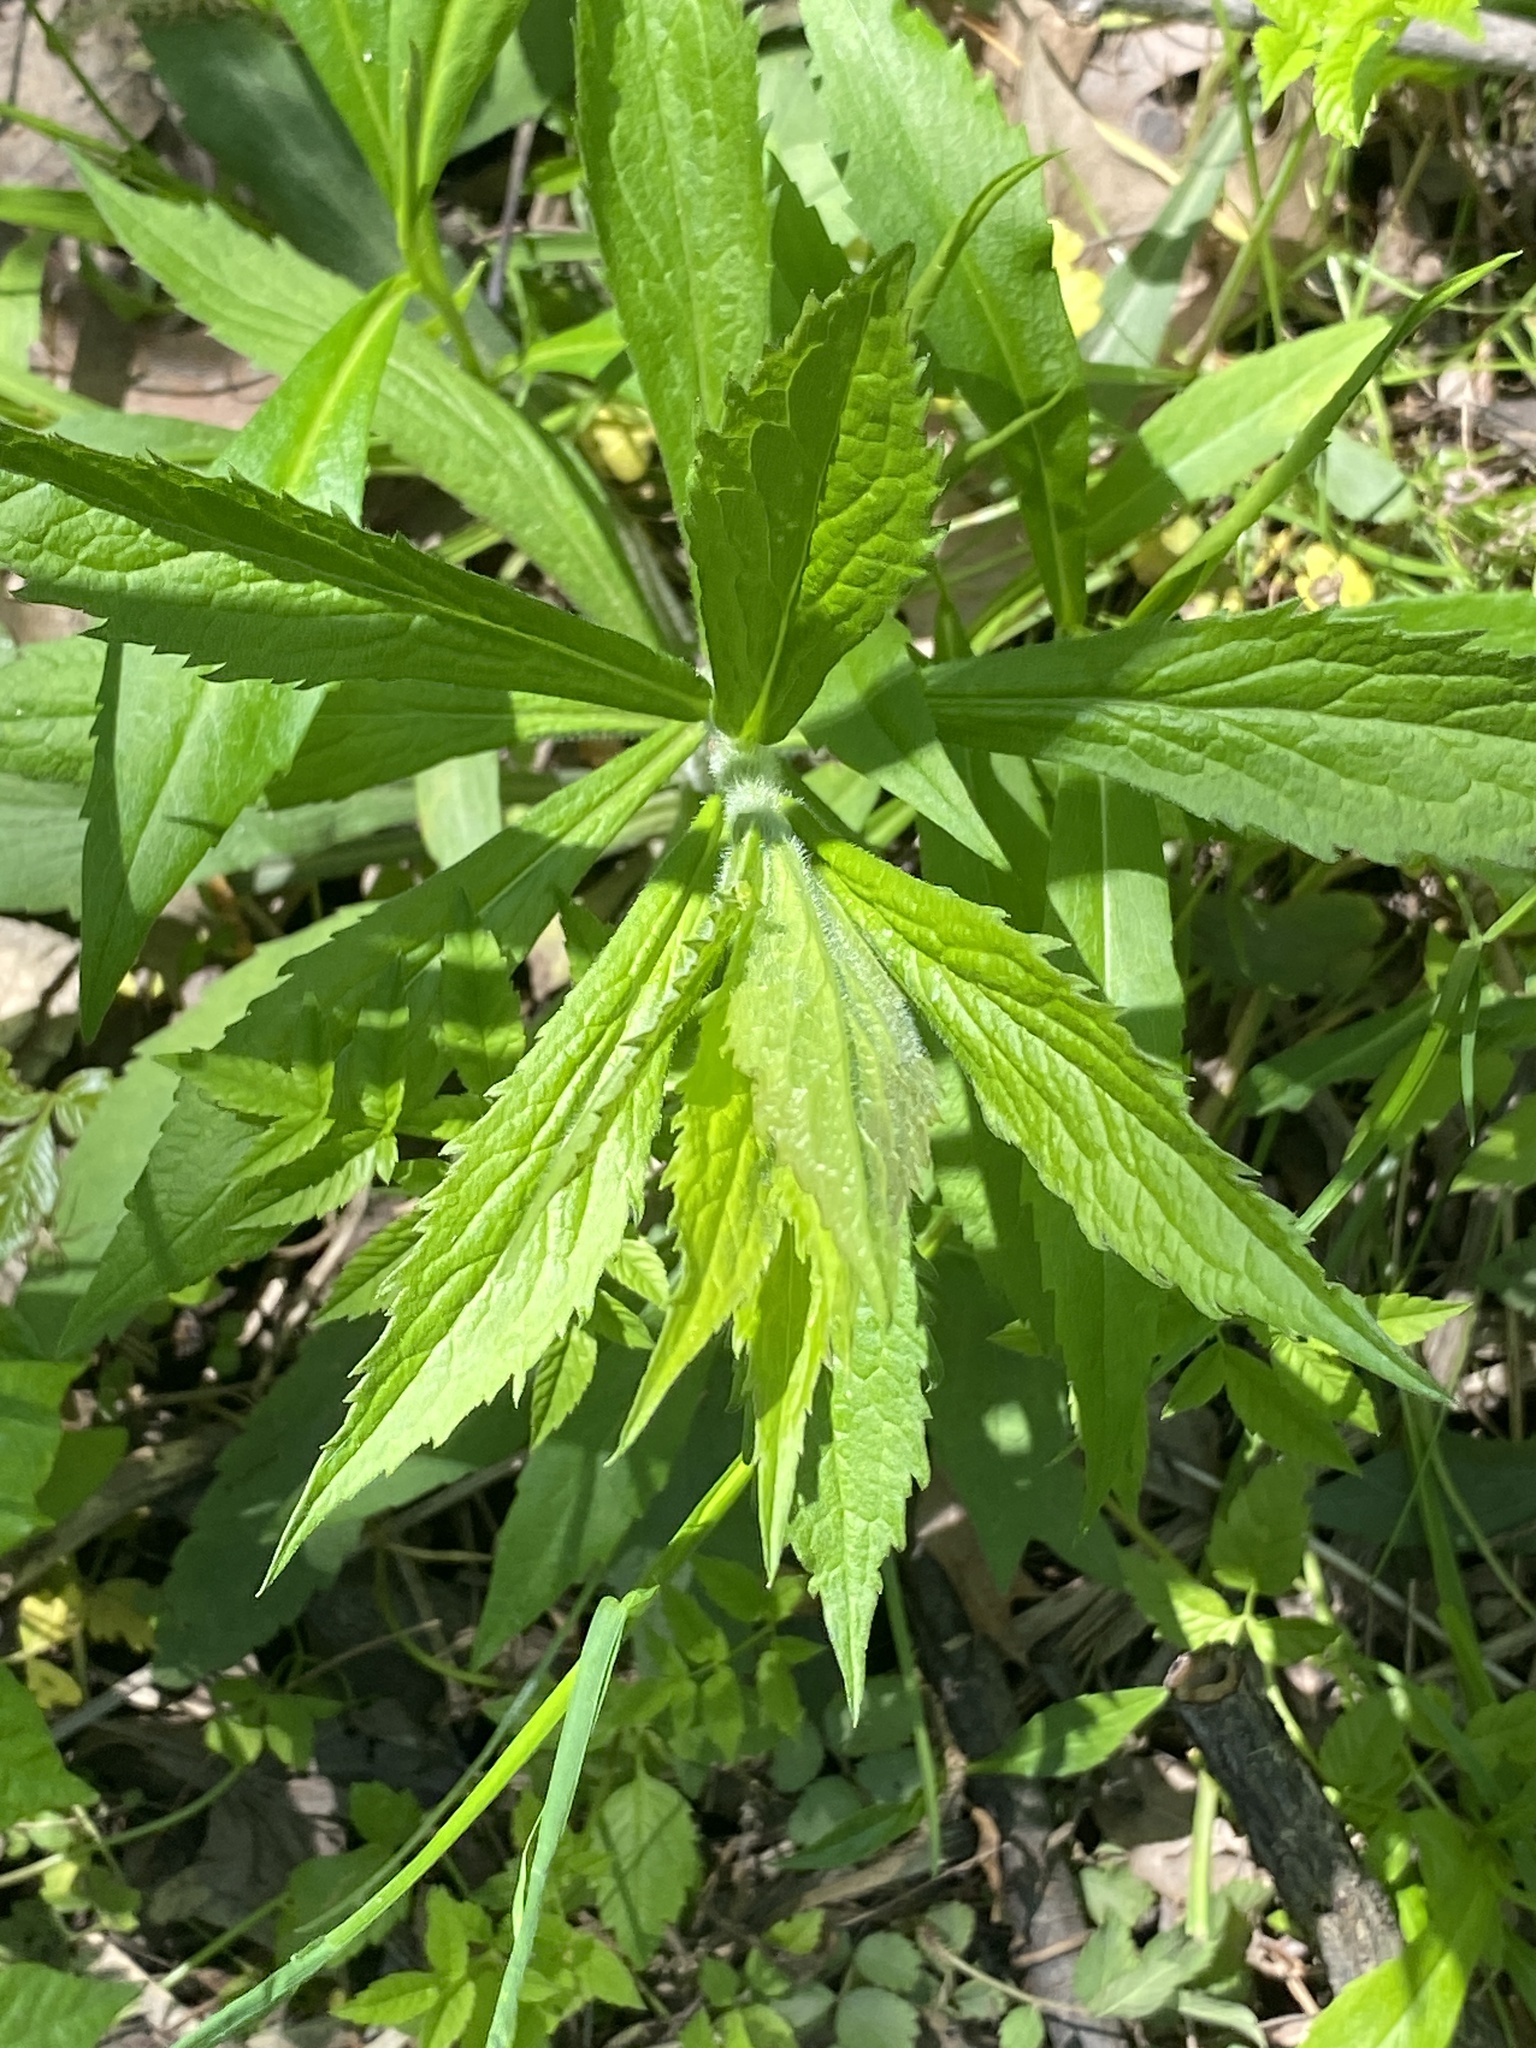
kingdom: Plantae
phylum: Tracheophyta
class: Magnoliopsida
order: Asterales
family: Asteraceae
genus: Solidago
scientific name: Solidago rugosa
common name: Rough-stemmed goldenrod
